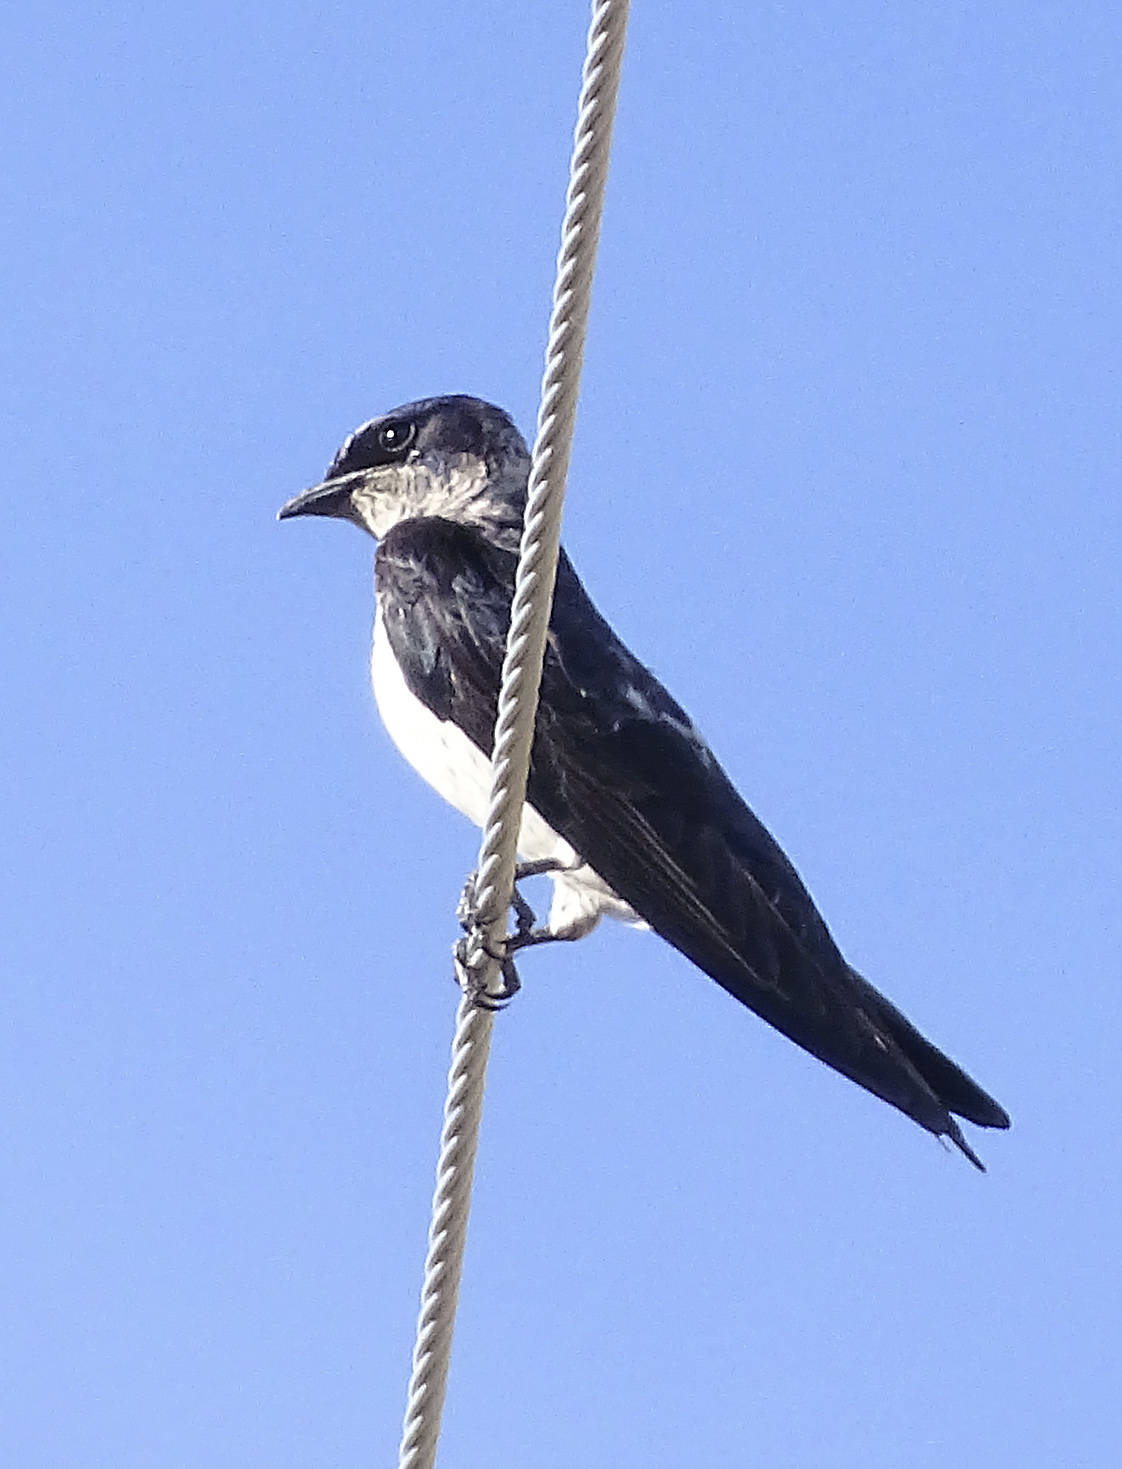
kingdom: Animalia
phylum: Chordata
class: Aves
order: Passeriformes
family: Hirundinidae
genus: Progne
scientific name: Progne subis
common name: Purple martin
